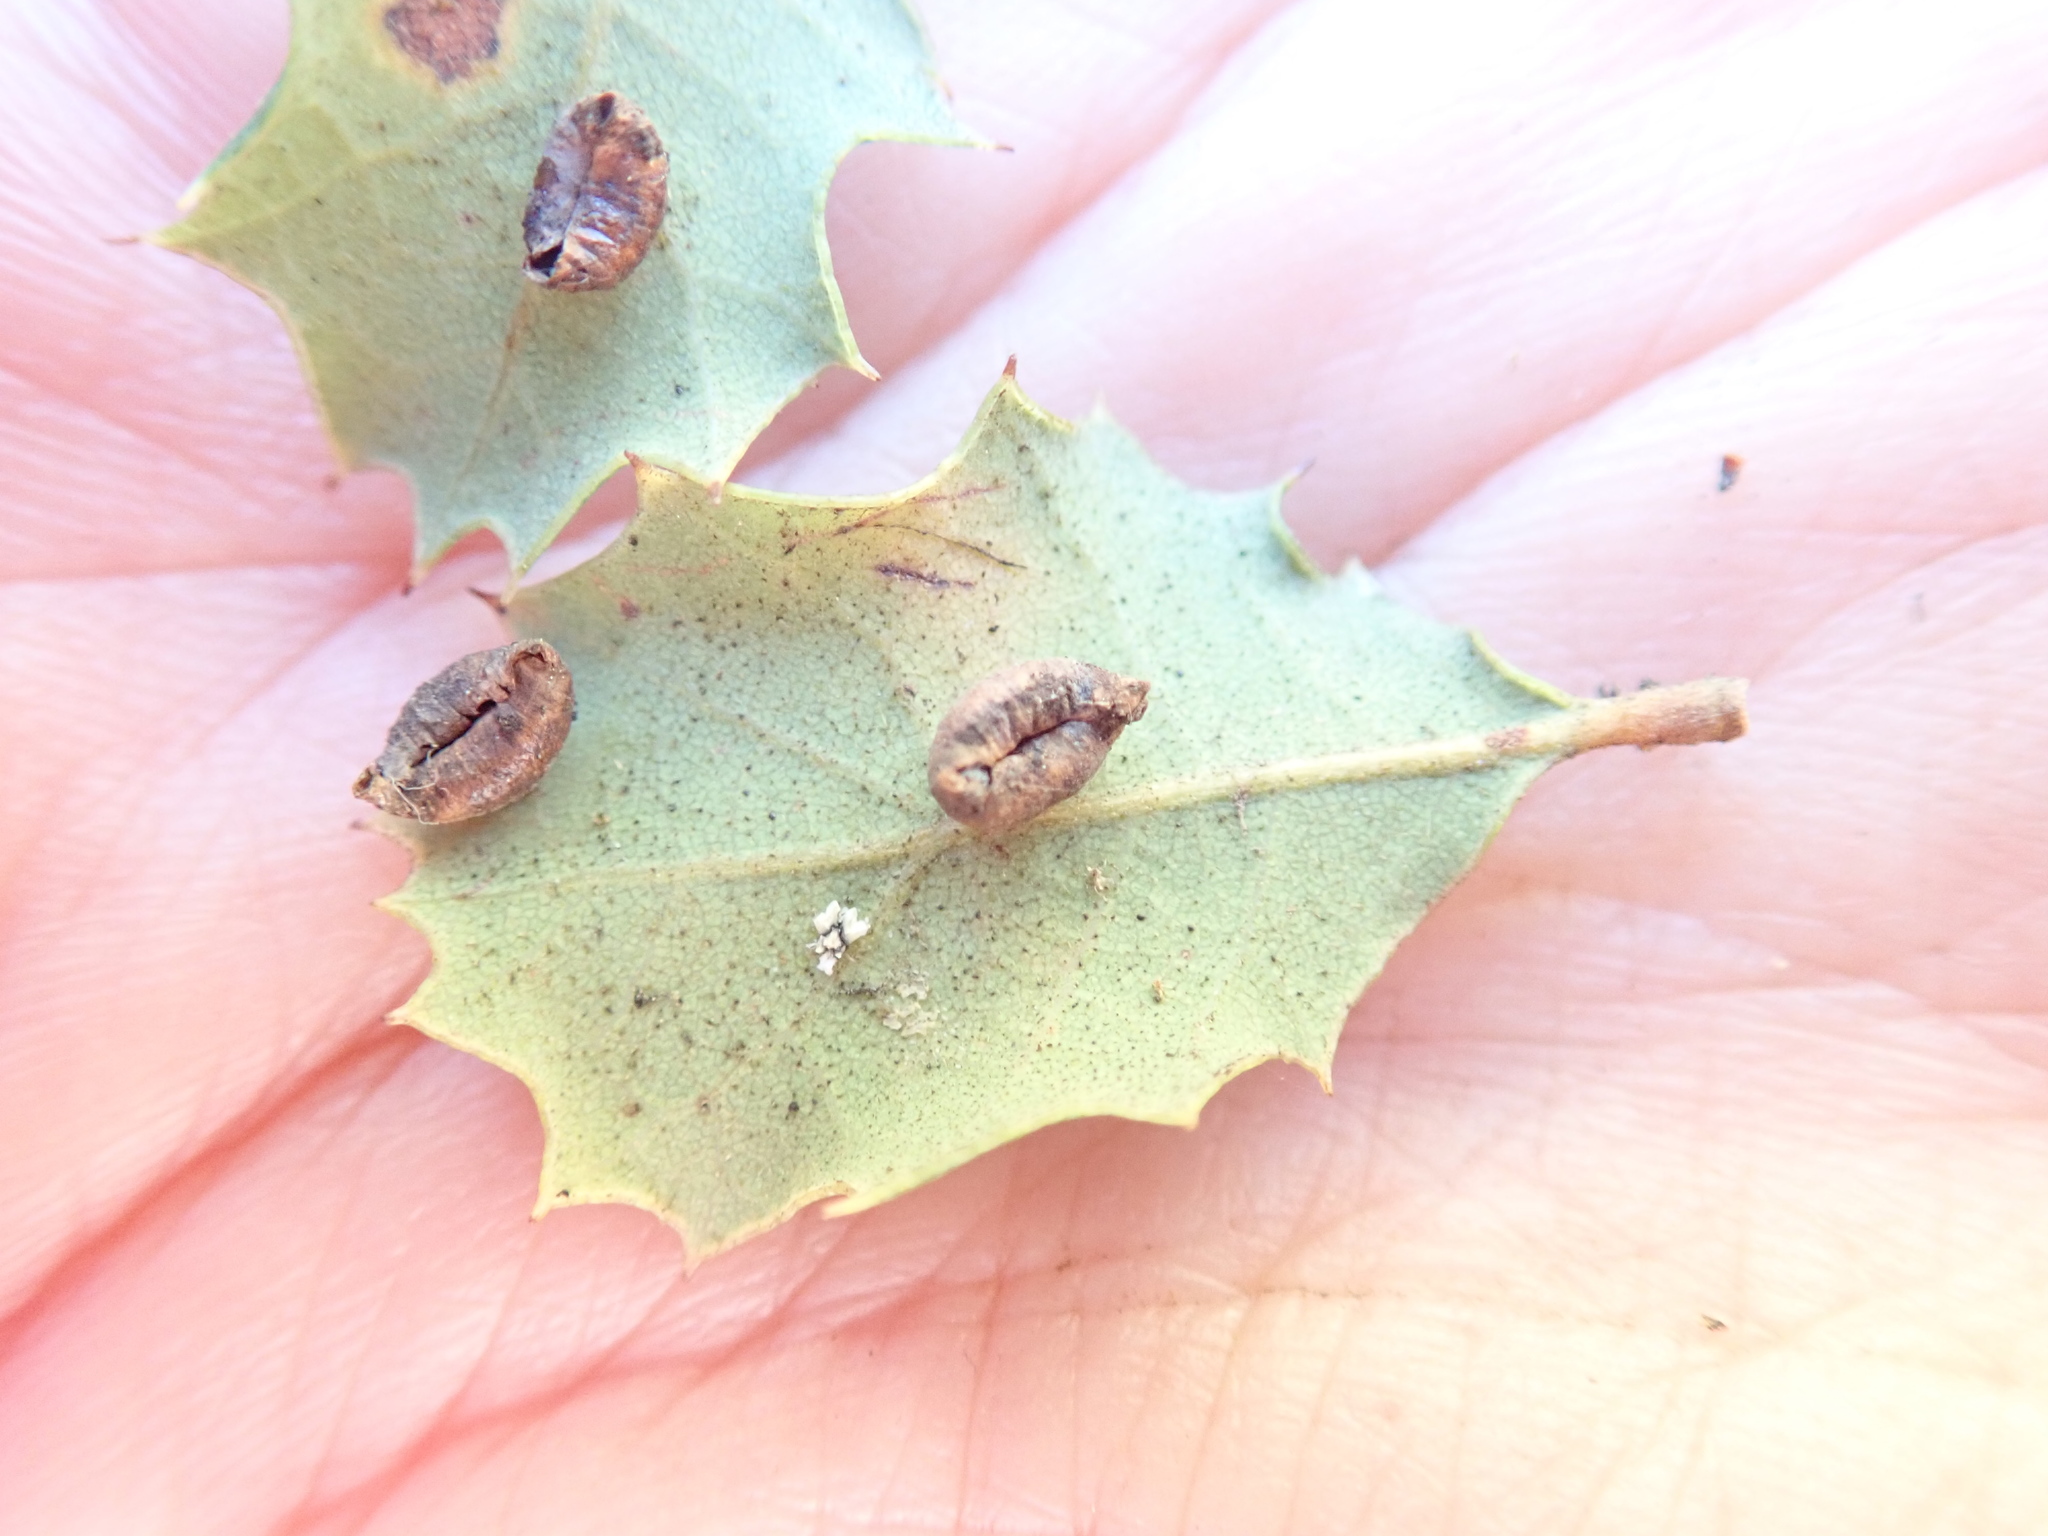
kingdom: Animalia
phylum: Arthropoda
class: Insecta
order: Hymenoptera
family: Cynipidae
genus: Andricus
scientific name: Andricus
